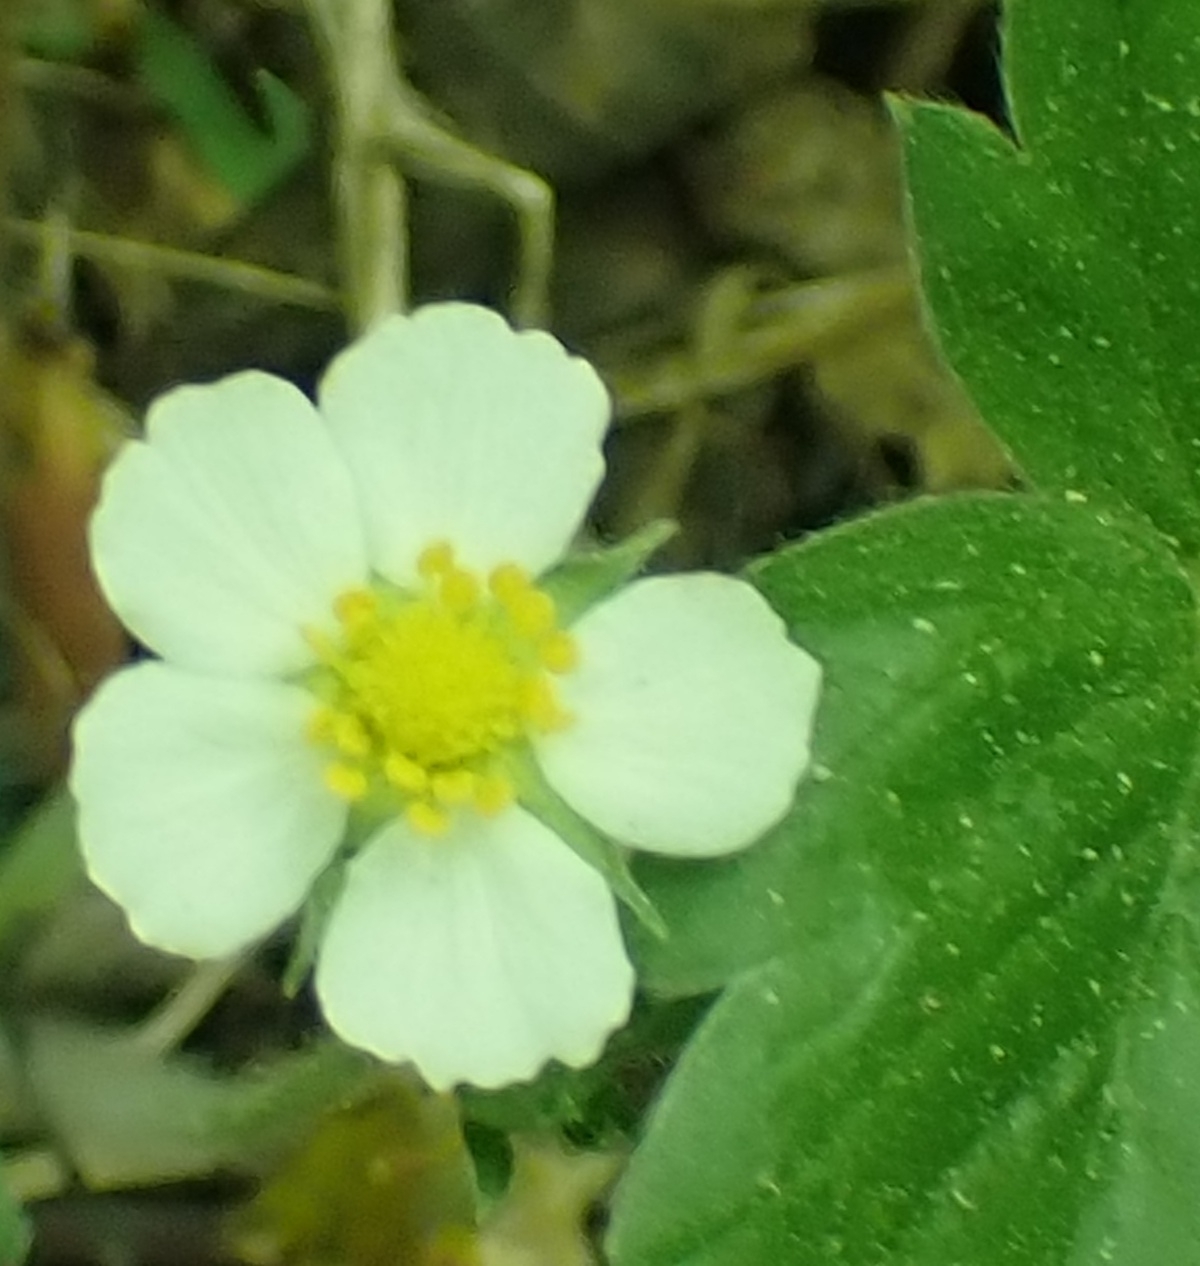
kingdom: Plantae
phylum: Tracheophyta
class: Magnoliopsida
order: Rosales
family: Rosaceae
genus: Fragaria
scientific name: Fragaria vesca
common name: Wild strawberry
